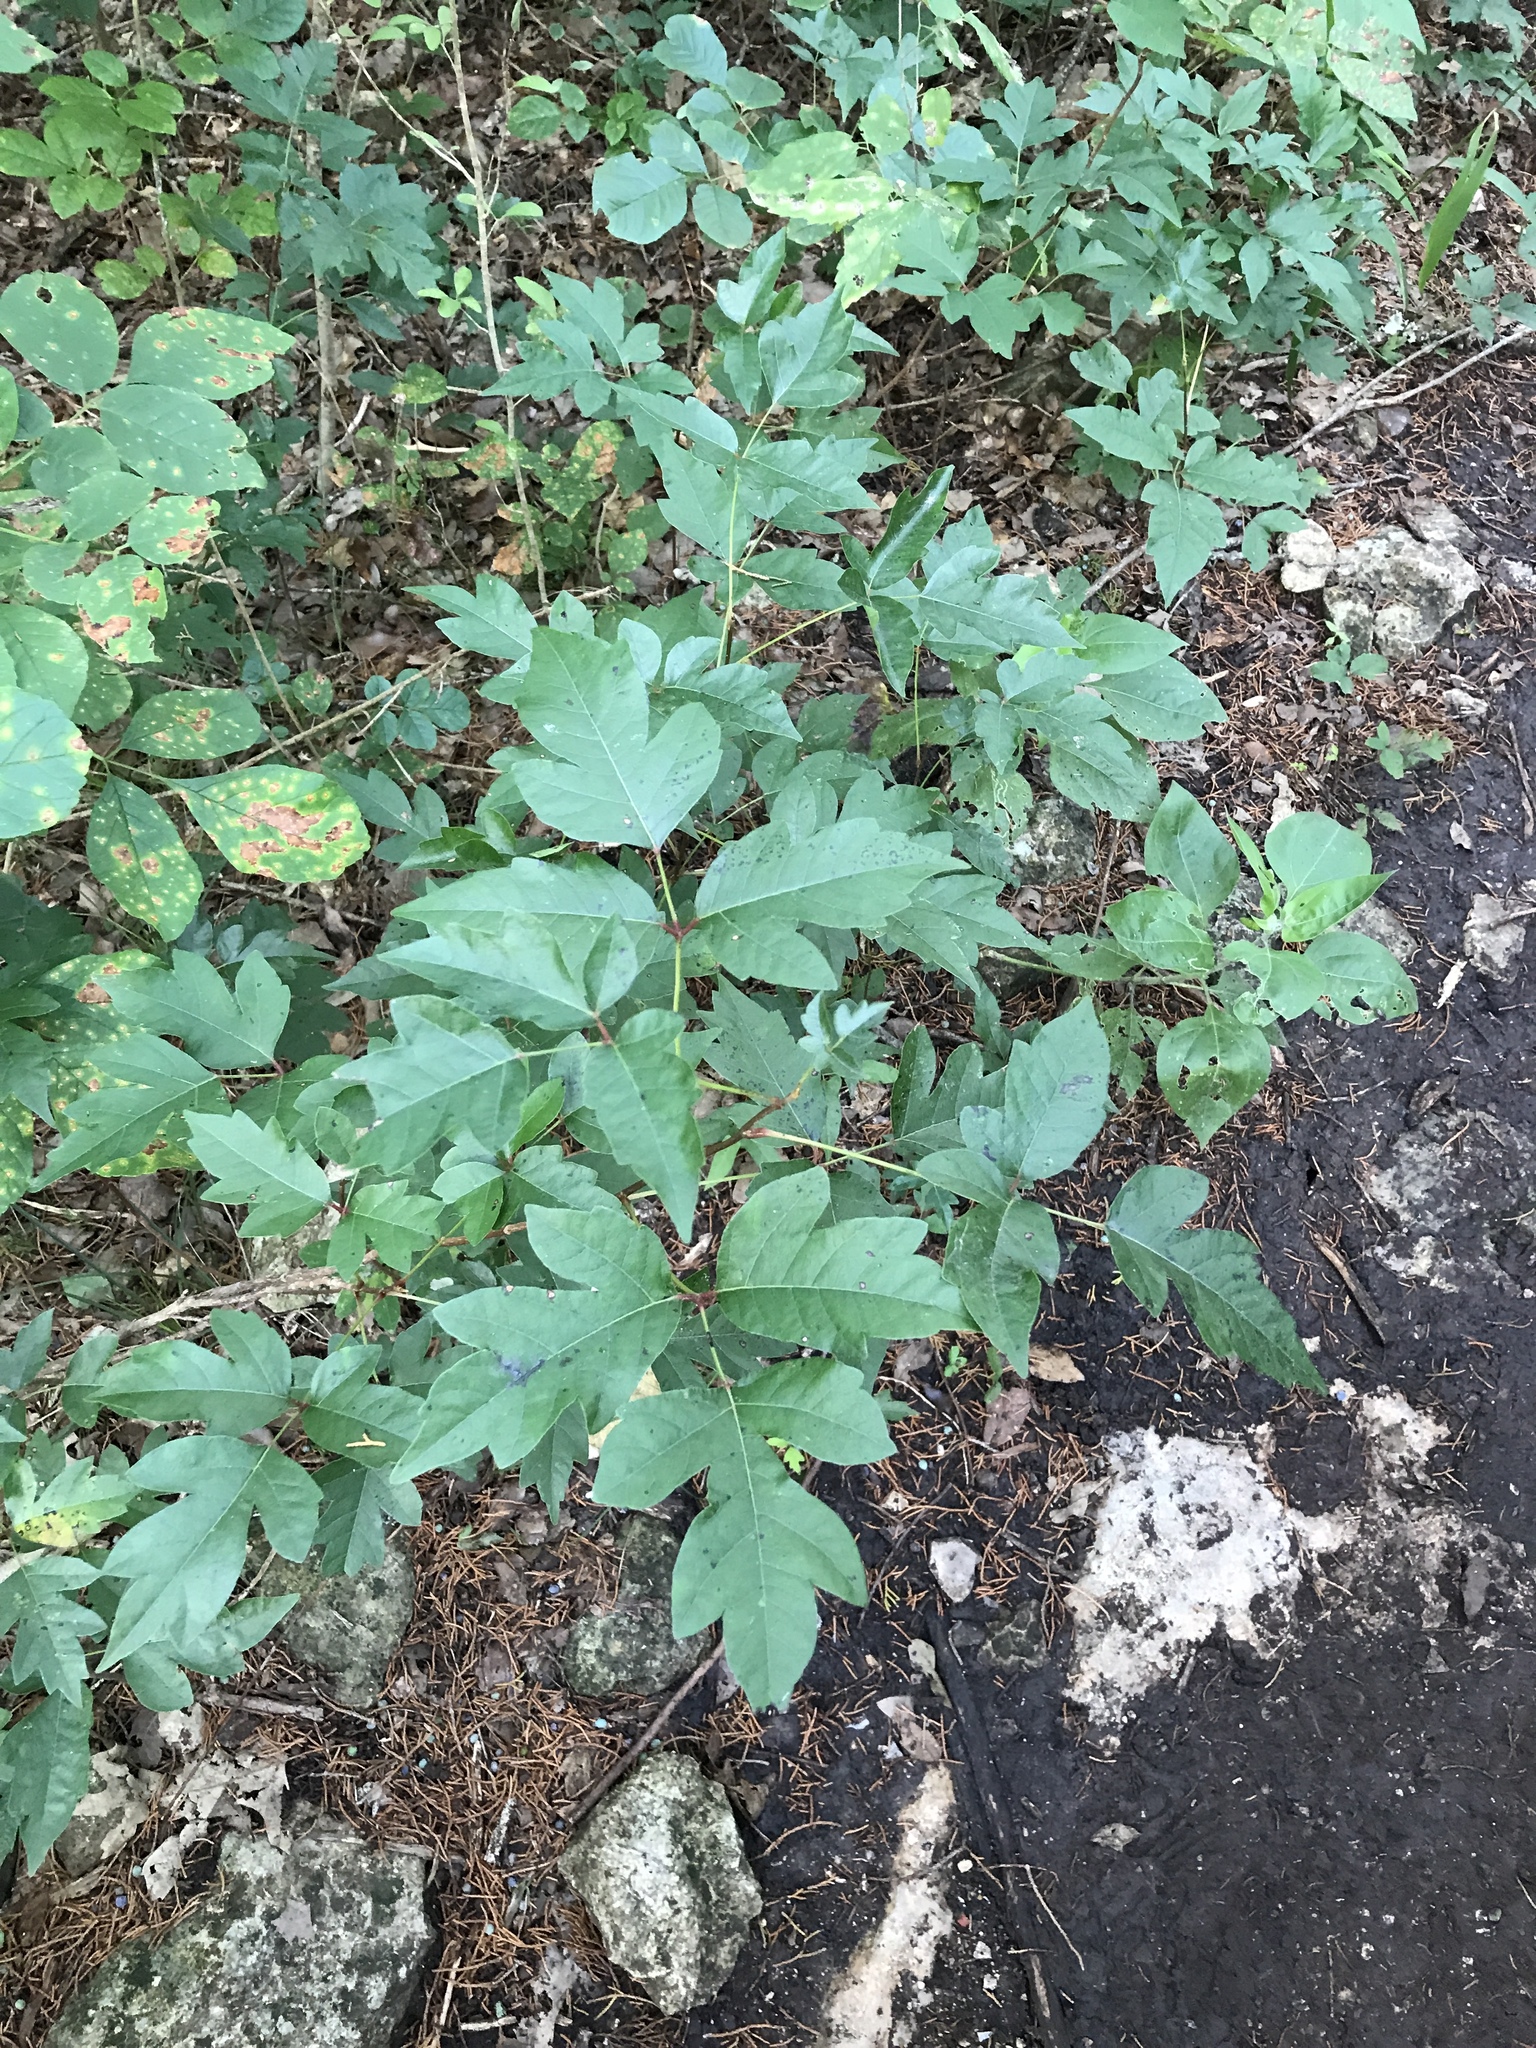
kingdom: Plantae
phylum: Tracheophyta
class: Magnoliopsida
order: Sapindales
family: Anacardiaceae
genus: Toxicodendron
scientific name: Toxicodendron radicans
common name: Poison ivy
